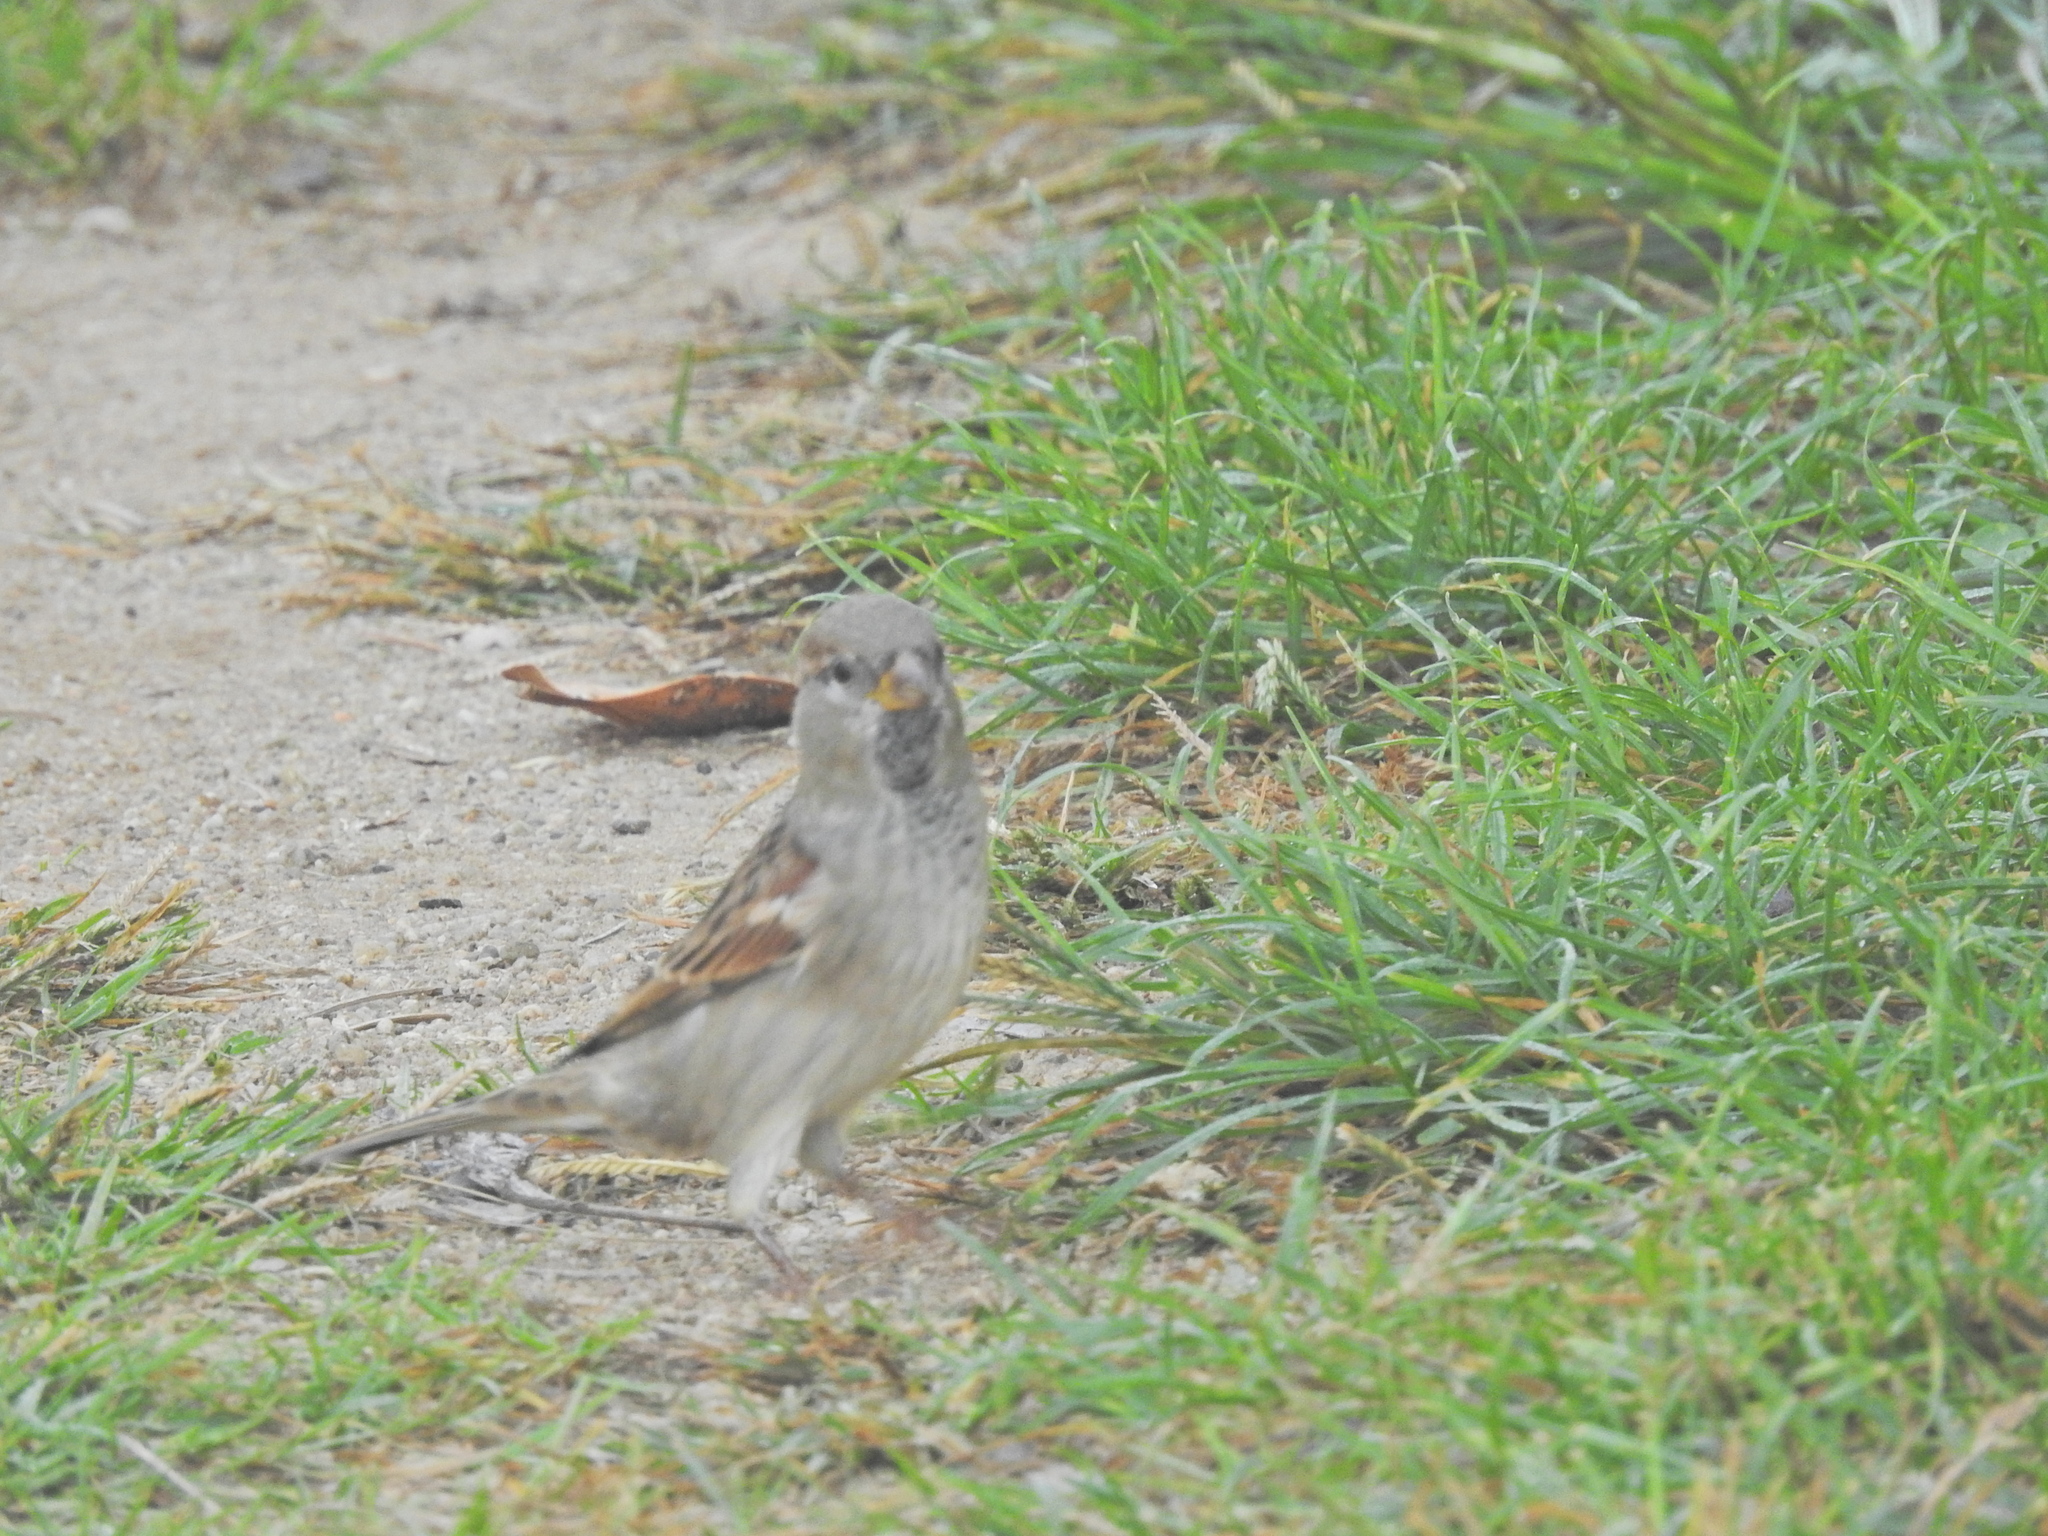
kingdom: Animalia
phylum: Chordata
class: Aves
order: Passeriformes
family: Passeridae
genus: Passer
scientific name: Passer domesticus
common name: House sparrow
